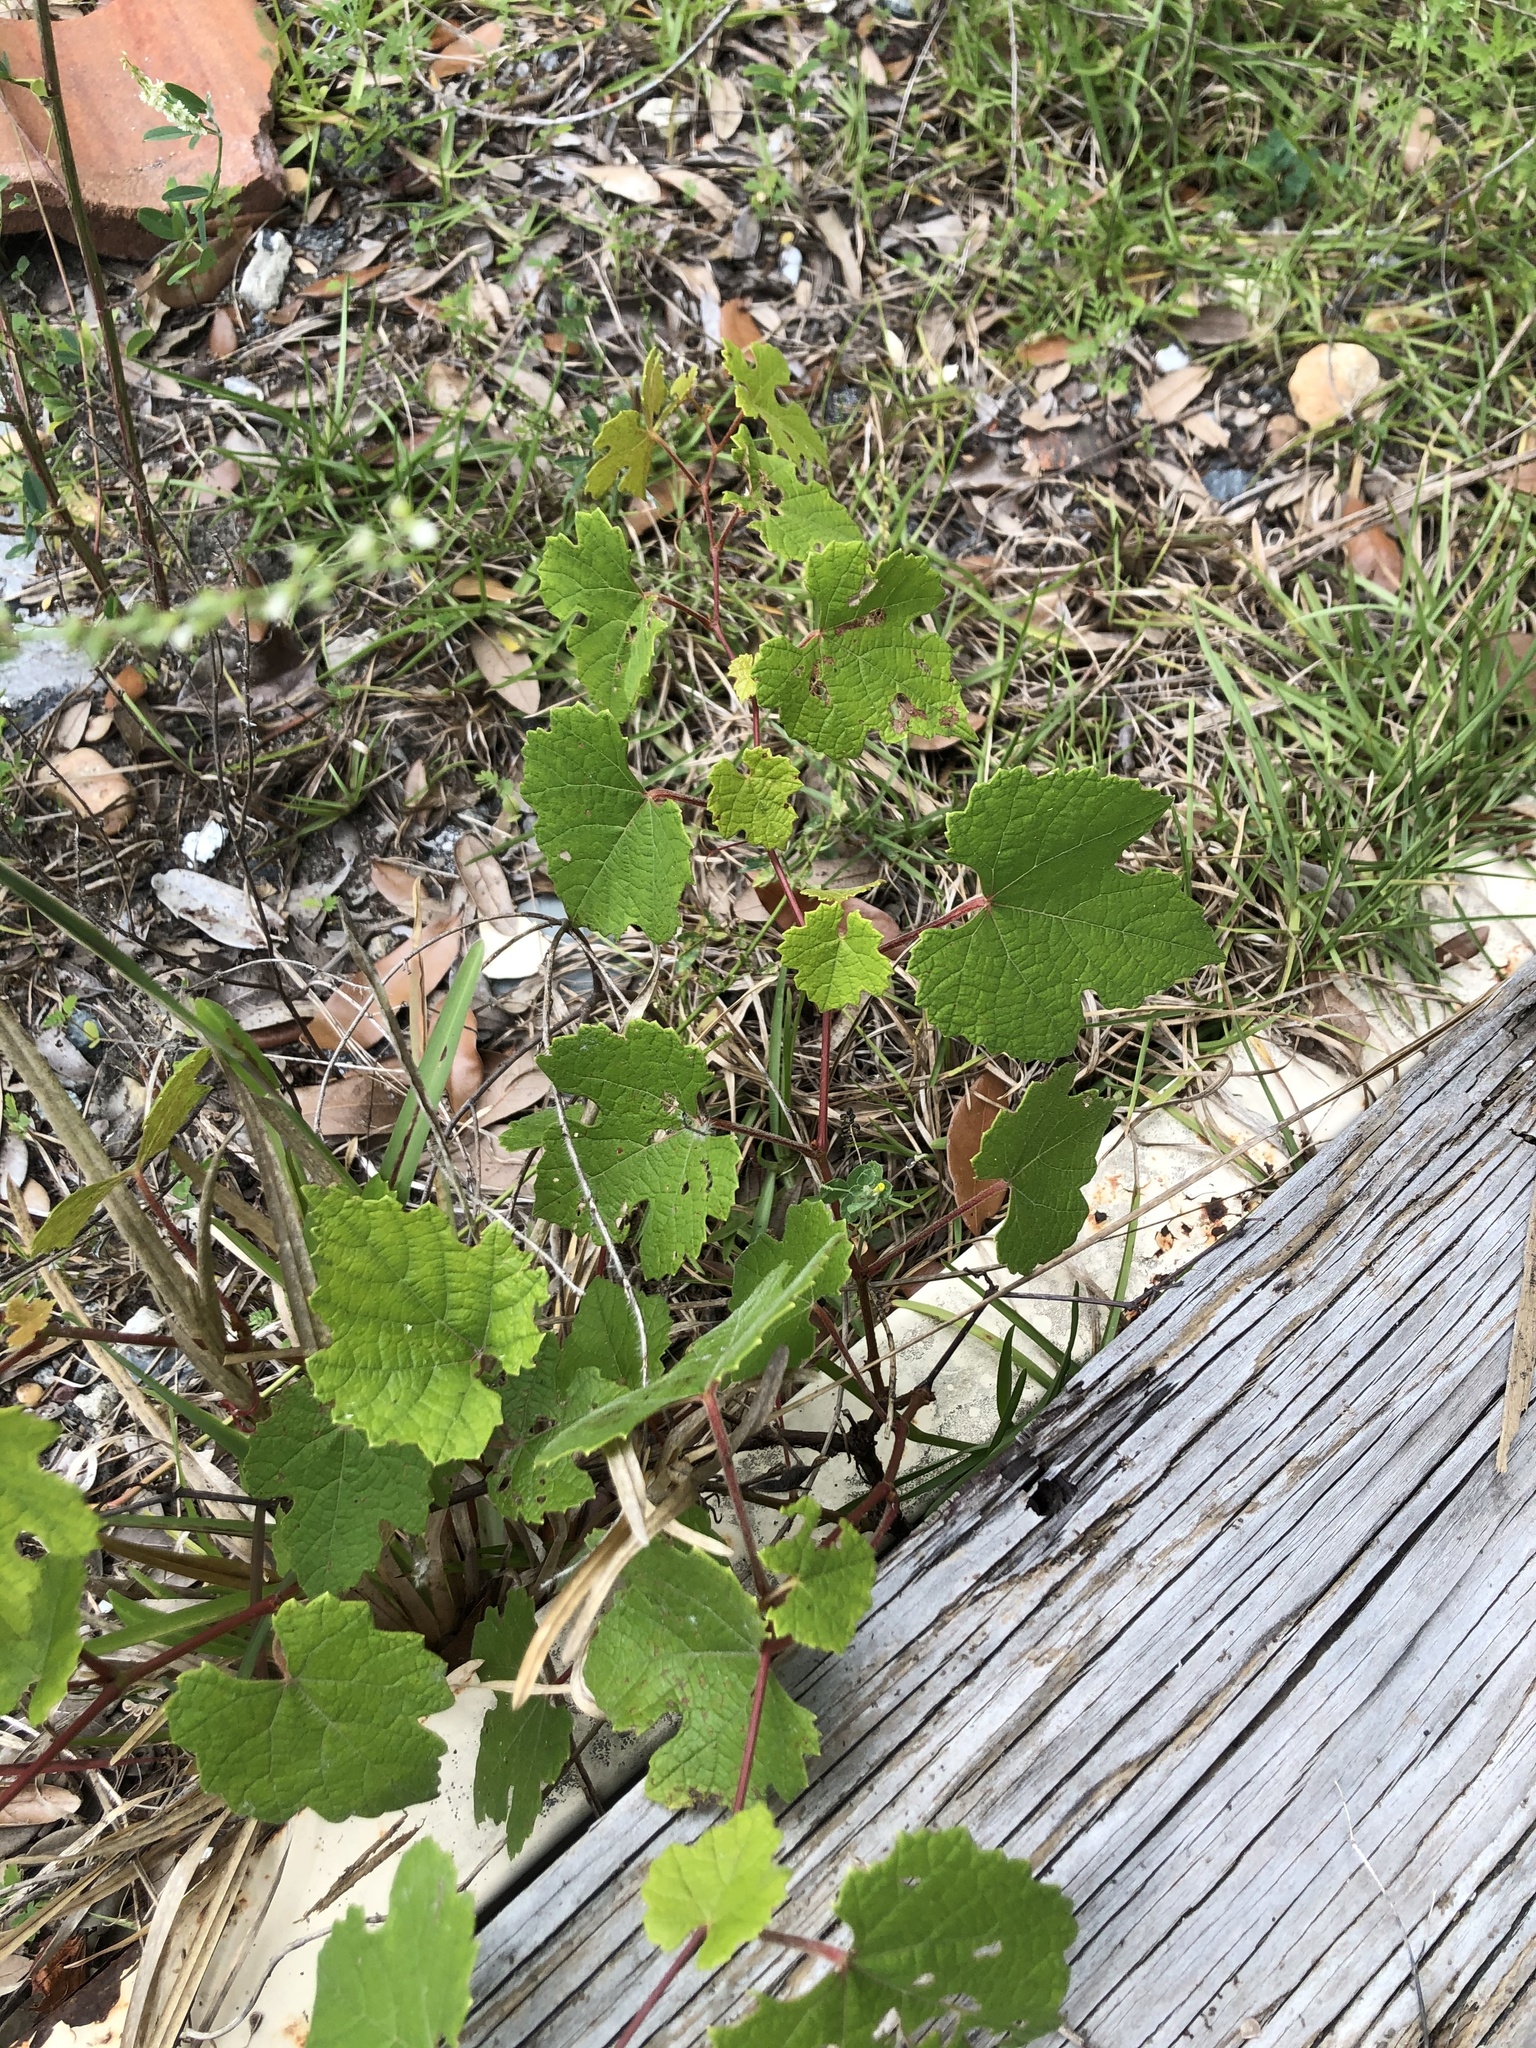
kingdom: Plantae
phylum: Tracheophyta
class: Magnoliopsida
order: Vitales
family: Vitaceae
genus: Vitis
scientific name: Vitis aestivalis
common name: Pigeon grape
